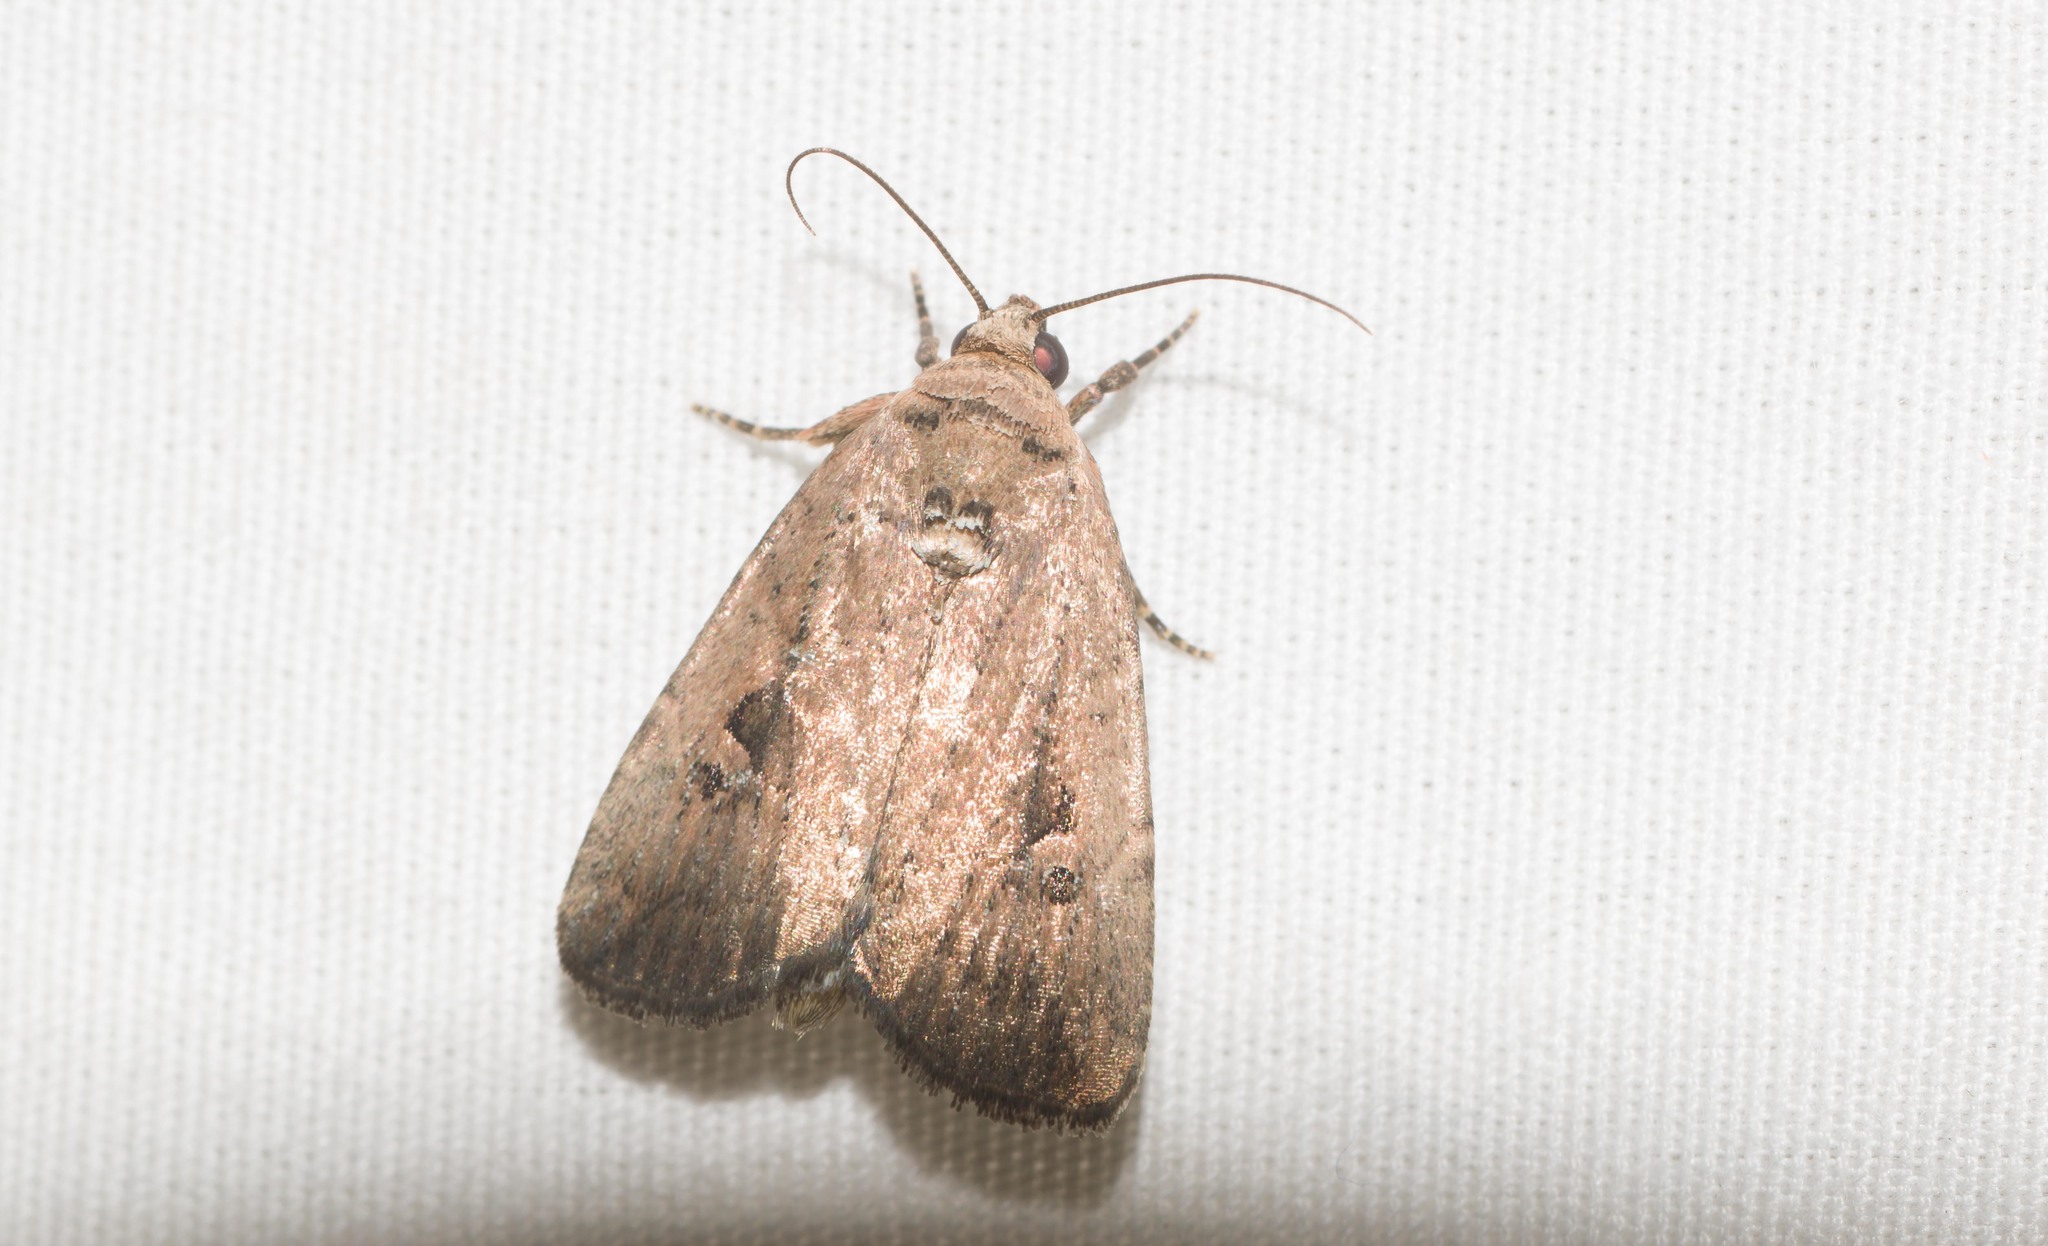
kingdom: Animalia
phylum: Arthropoda
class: Insecta
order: Lepidoptera
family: Noctuidae
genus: Elaphria
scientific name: Elaphria nucicolora
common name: Sugarcane midget moth
